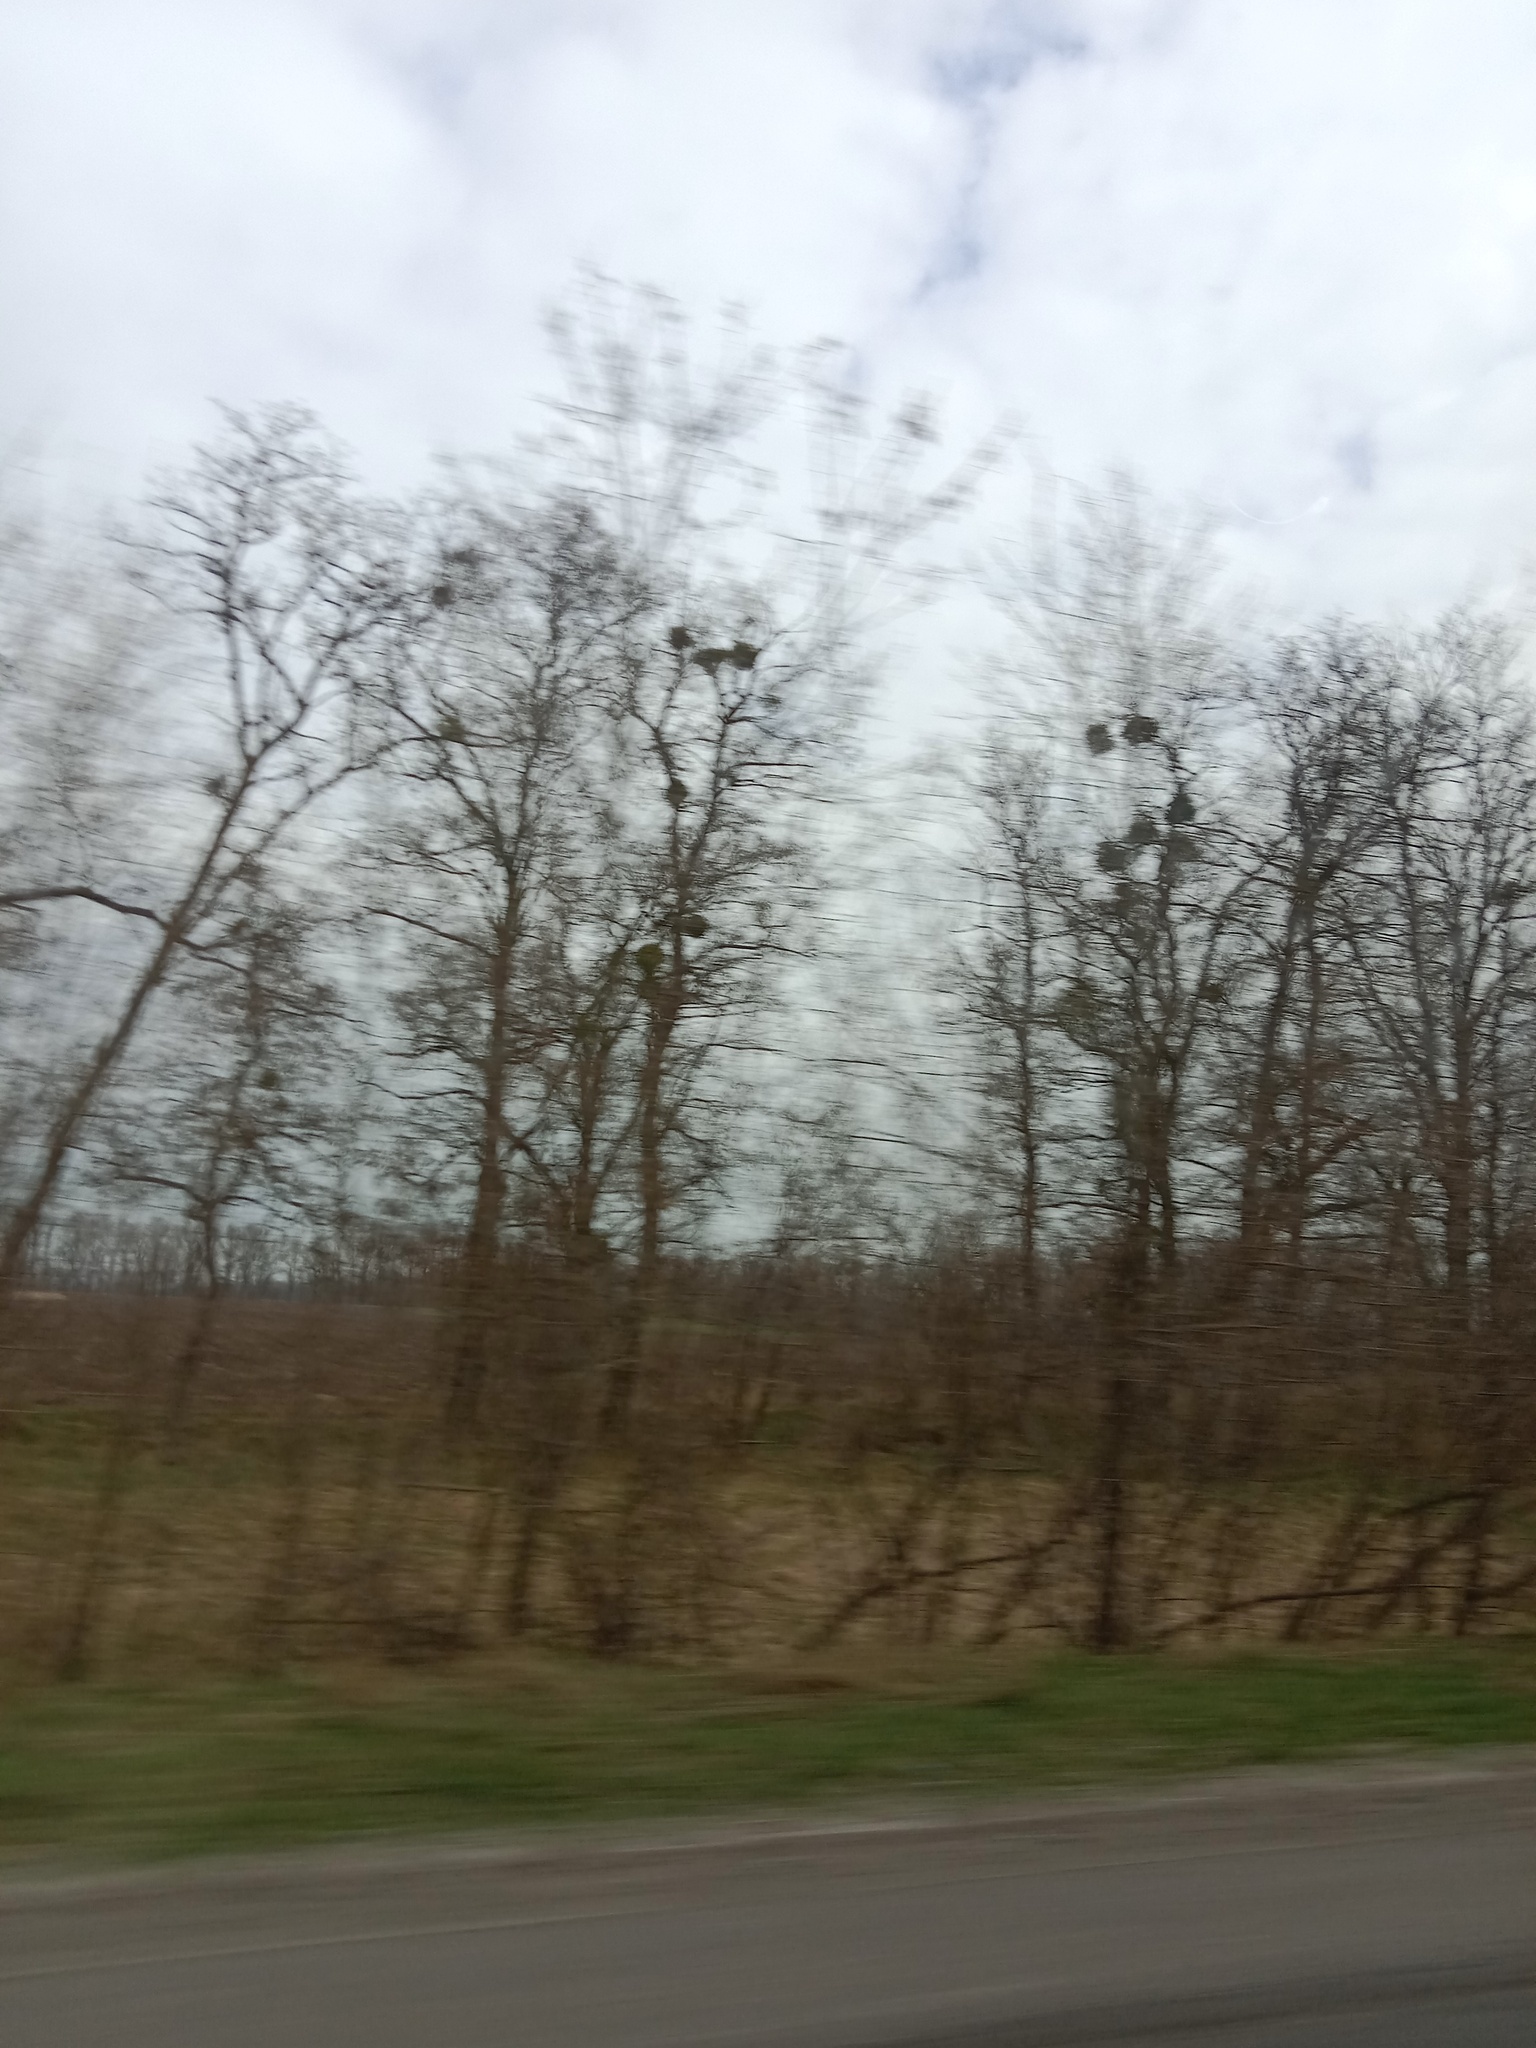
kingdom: Plantae
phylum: Tracheophyta
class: Magnoliopsida
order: Santalales
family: Viscaceae
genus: Viscum
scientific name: Viscum album
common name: Mistletoe
